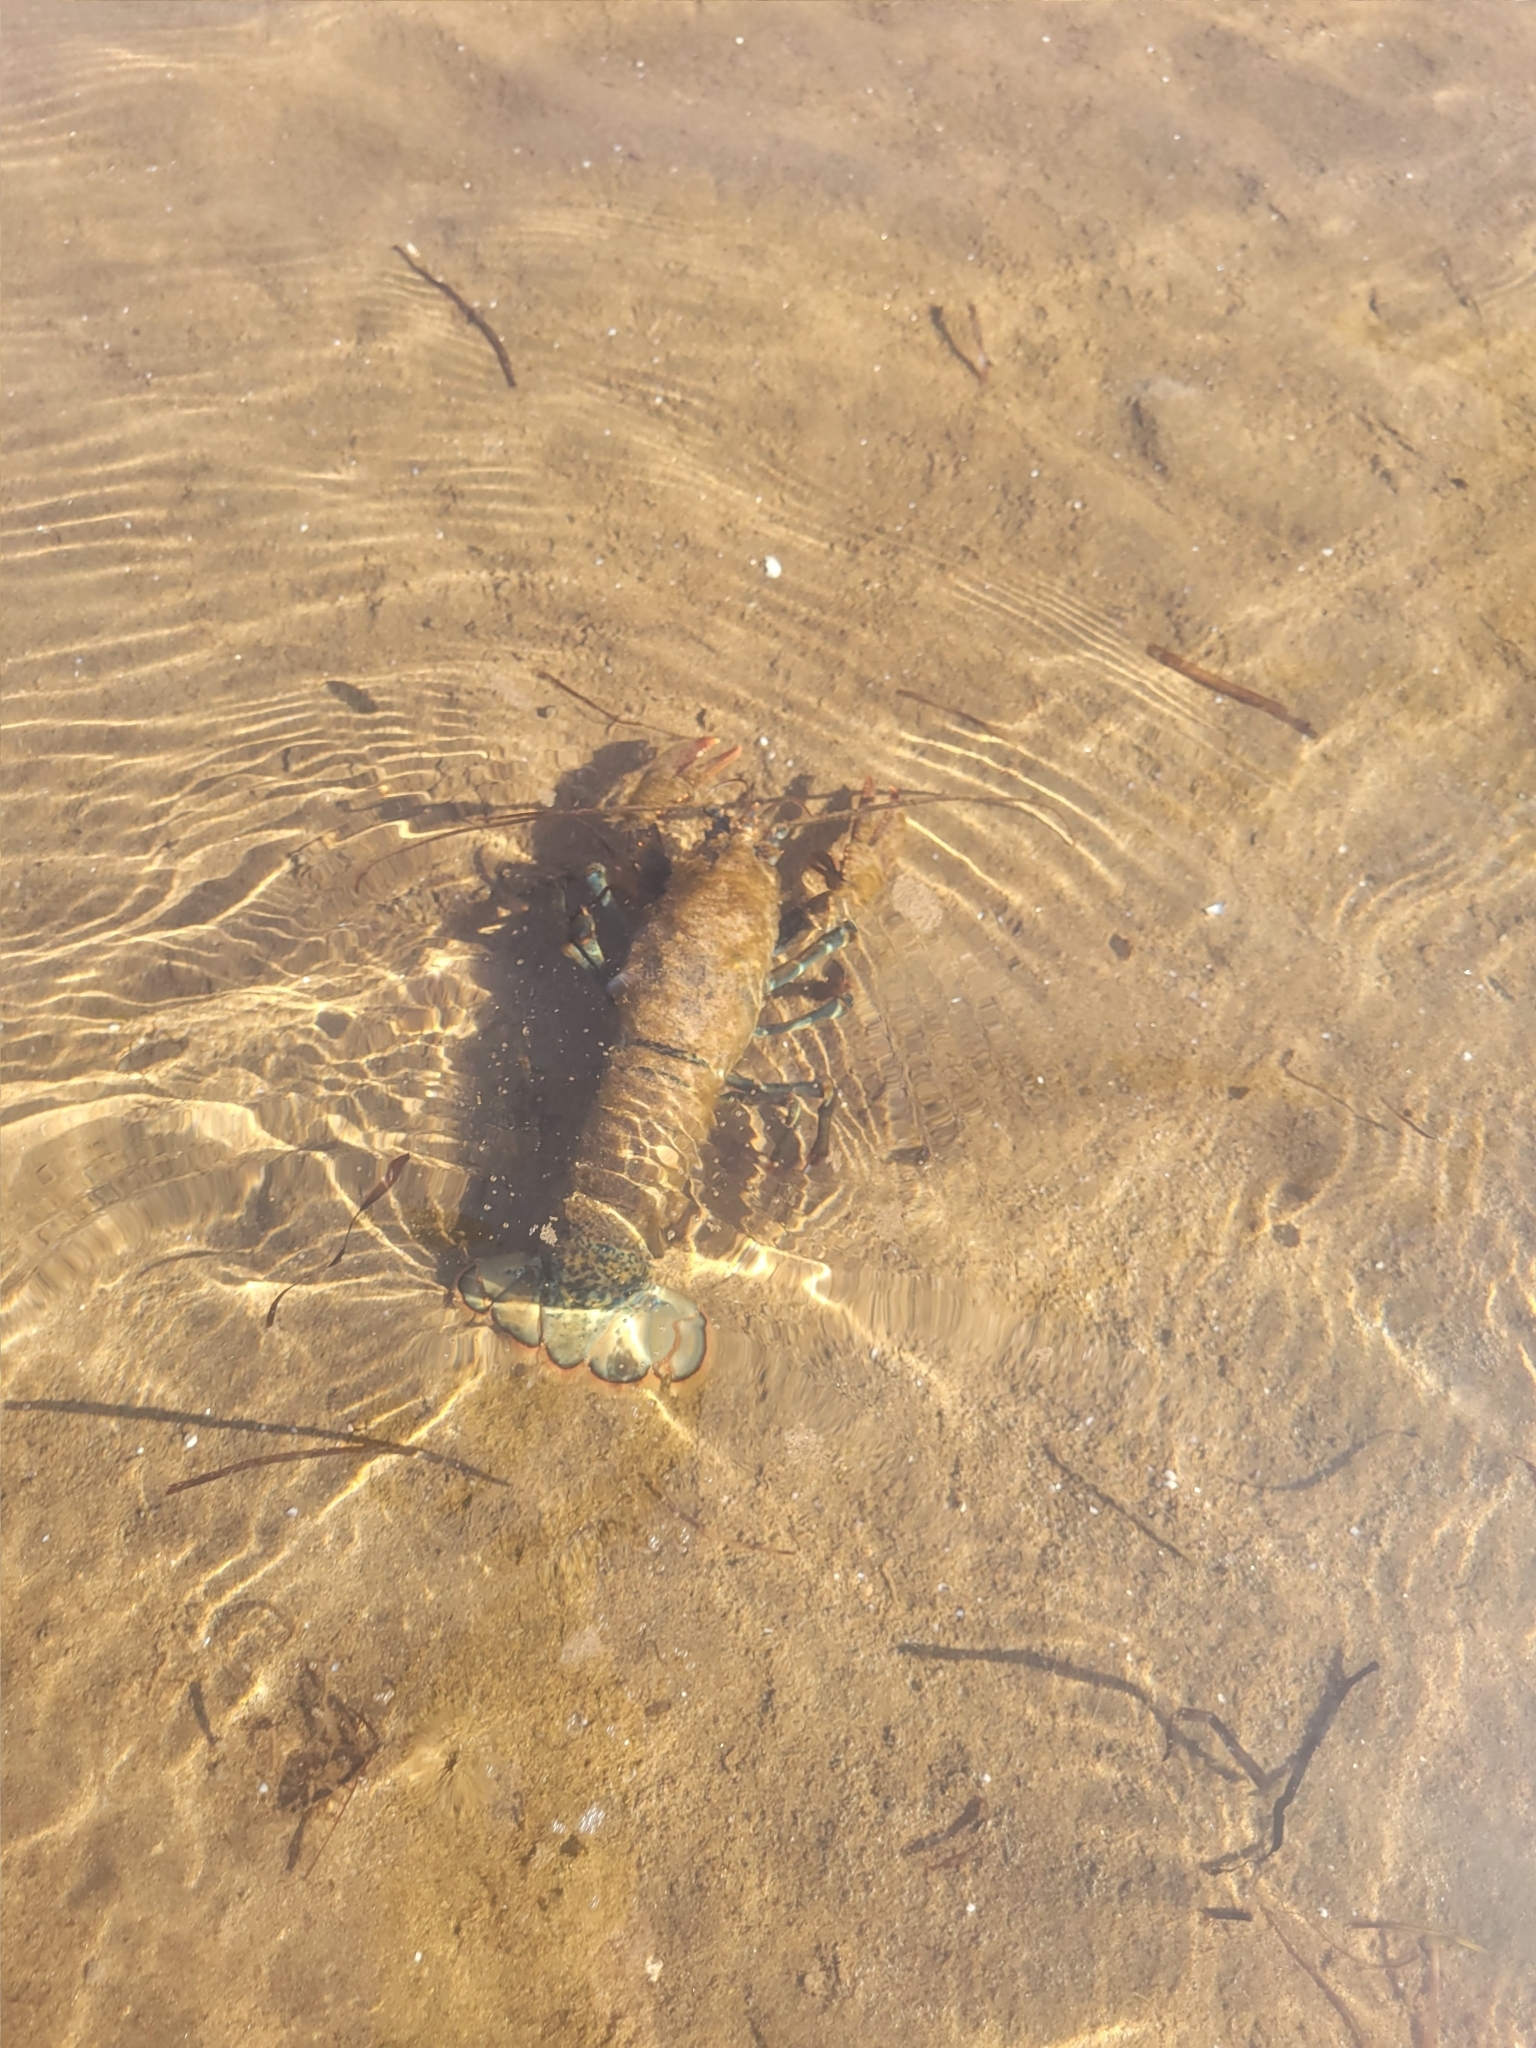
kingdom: Animalia
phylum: Arthropoda
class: Malacostraca
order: Decapoda
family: Nephropidae
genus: Homarus
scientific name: Homarus americanus
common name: American lobster
